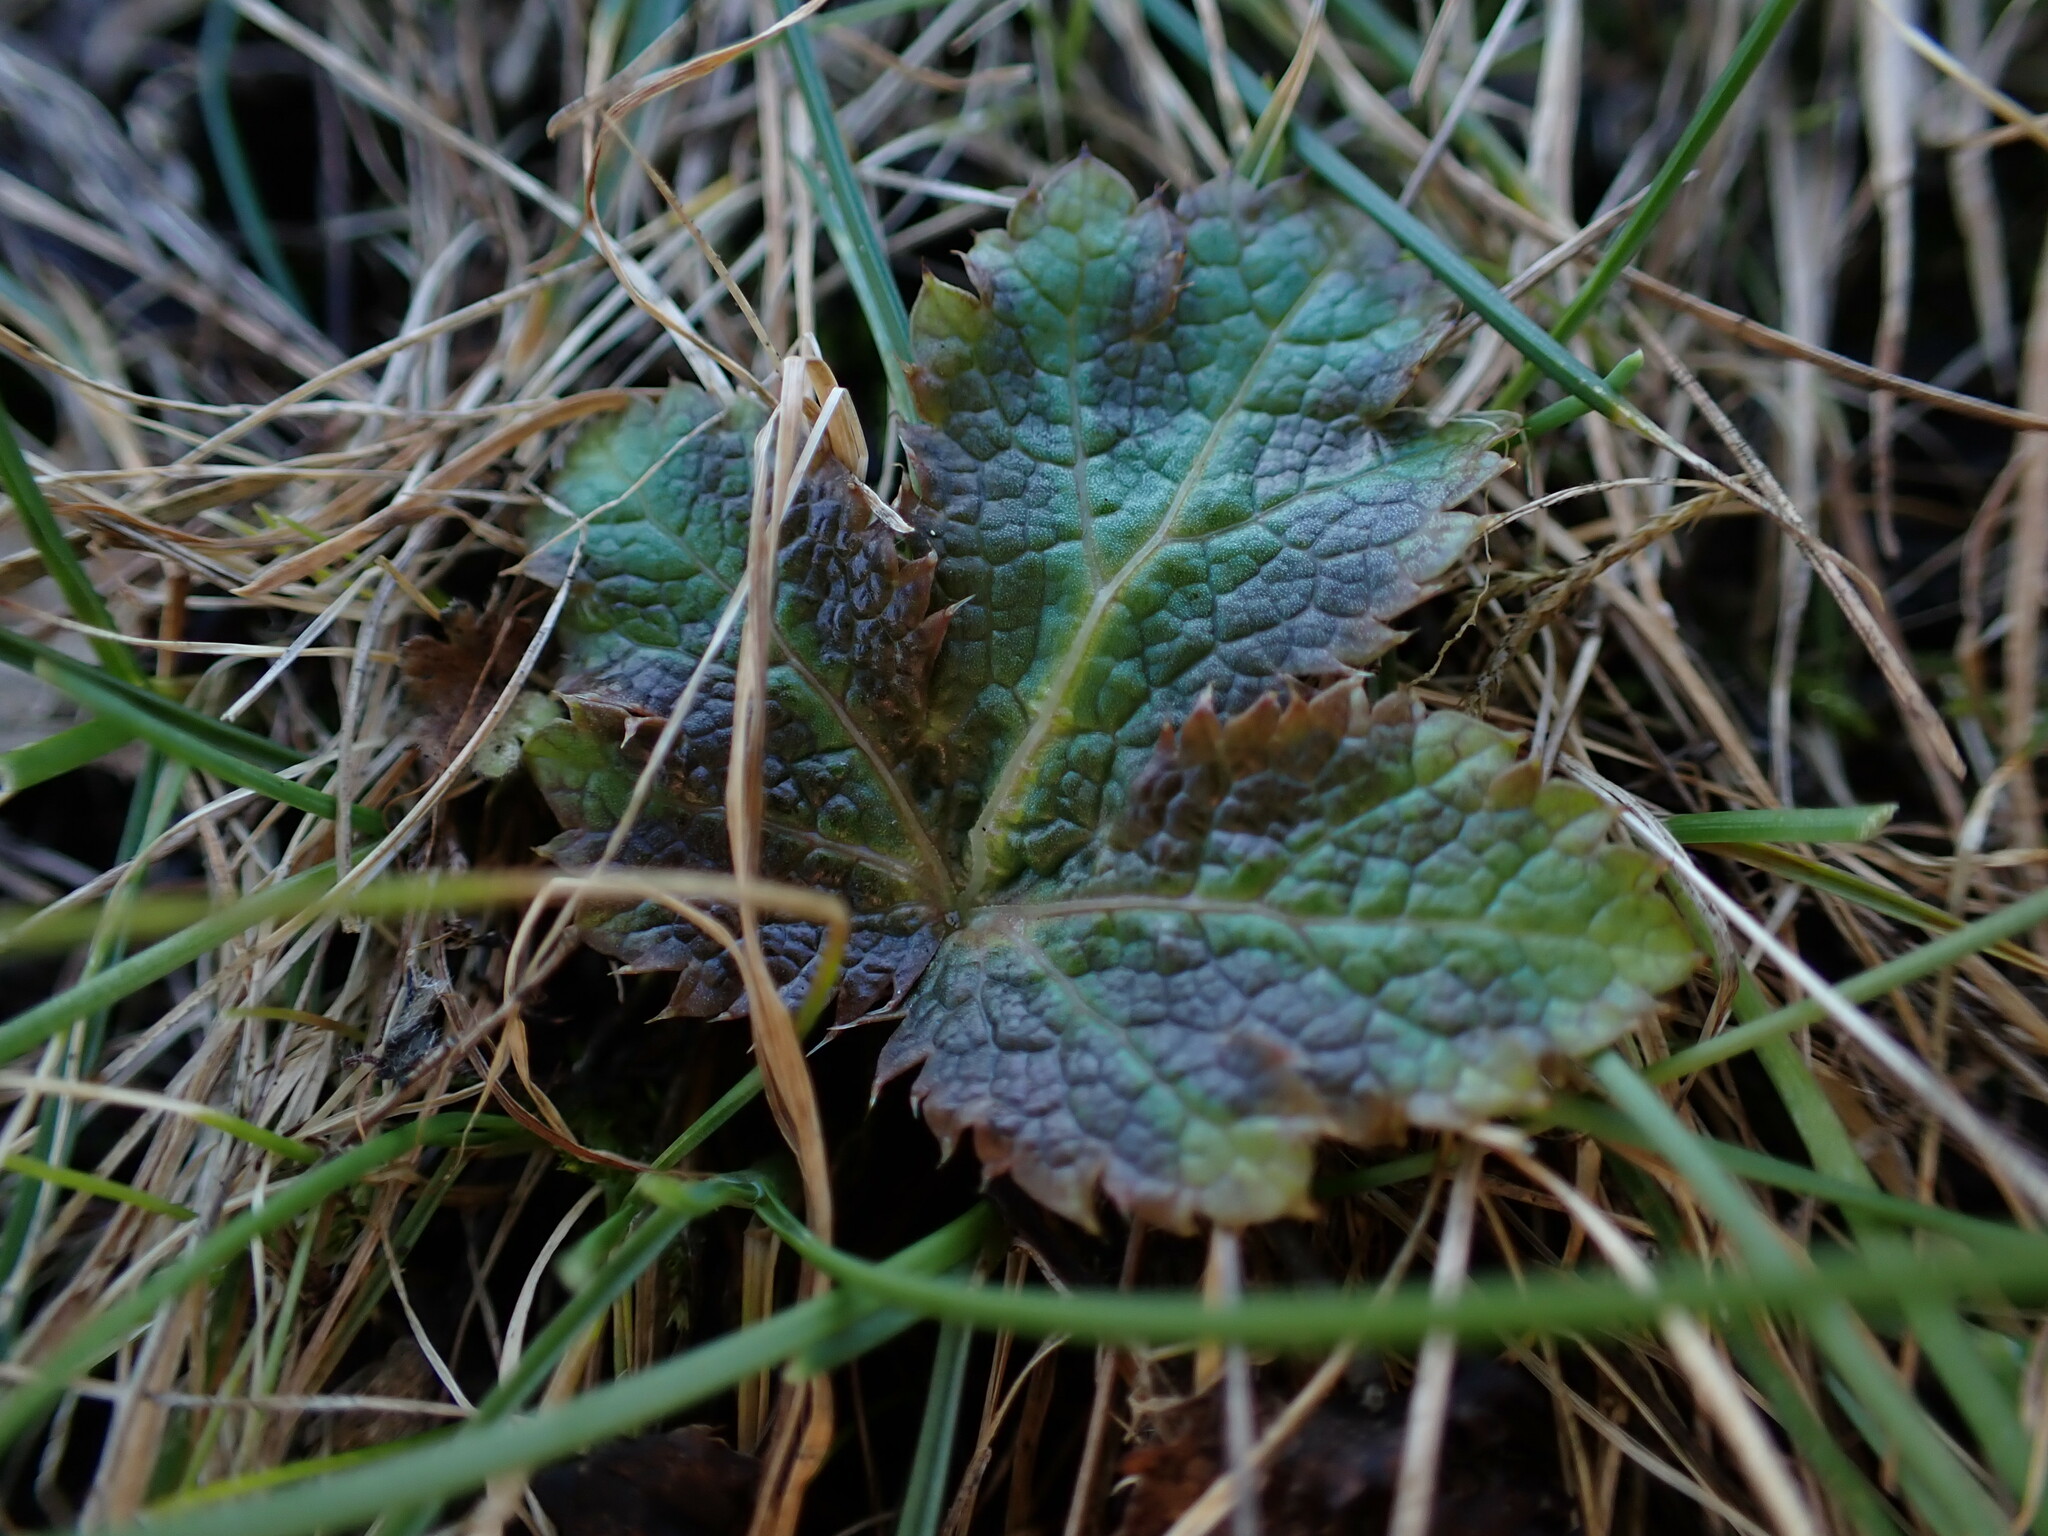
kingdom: Plantae
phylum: Tracheophyta
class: Magnoliopsida
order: Apiales
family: Apiaceae
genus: Sanicula
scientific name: Sanicula crassicaulis
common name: Western snakeroot
